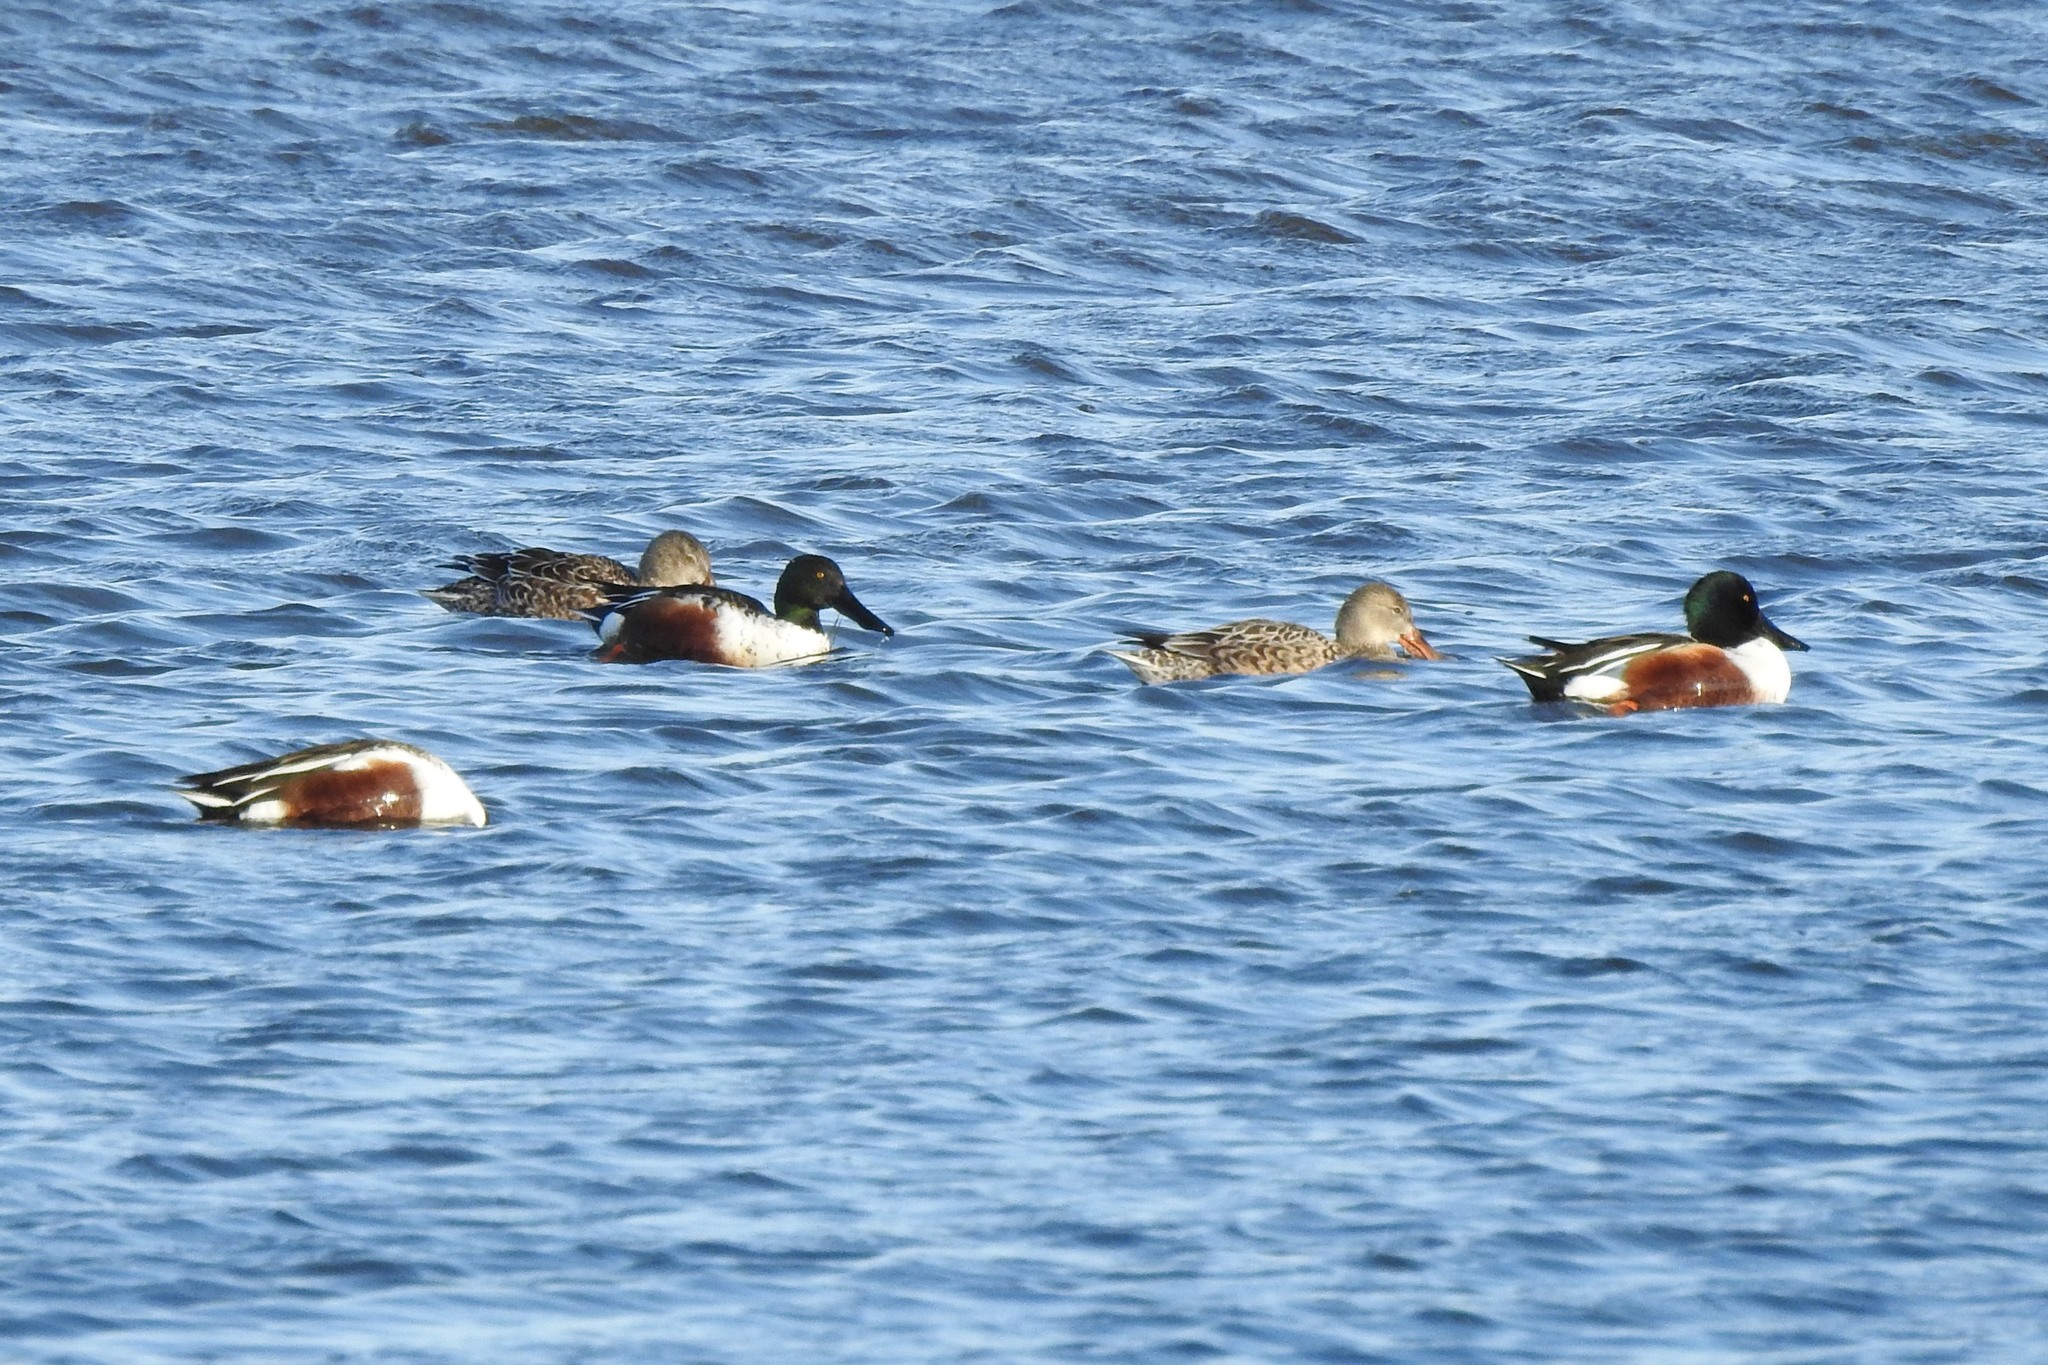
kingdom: Animalia
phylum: Chordata
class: Aves
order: Anseriformes
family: Anatidae
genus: Spatula
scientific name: Spatula clypeata
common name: Northern shoveler
